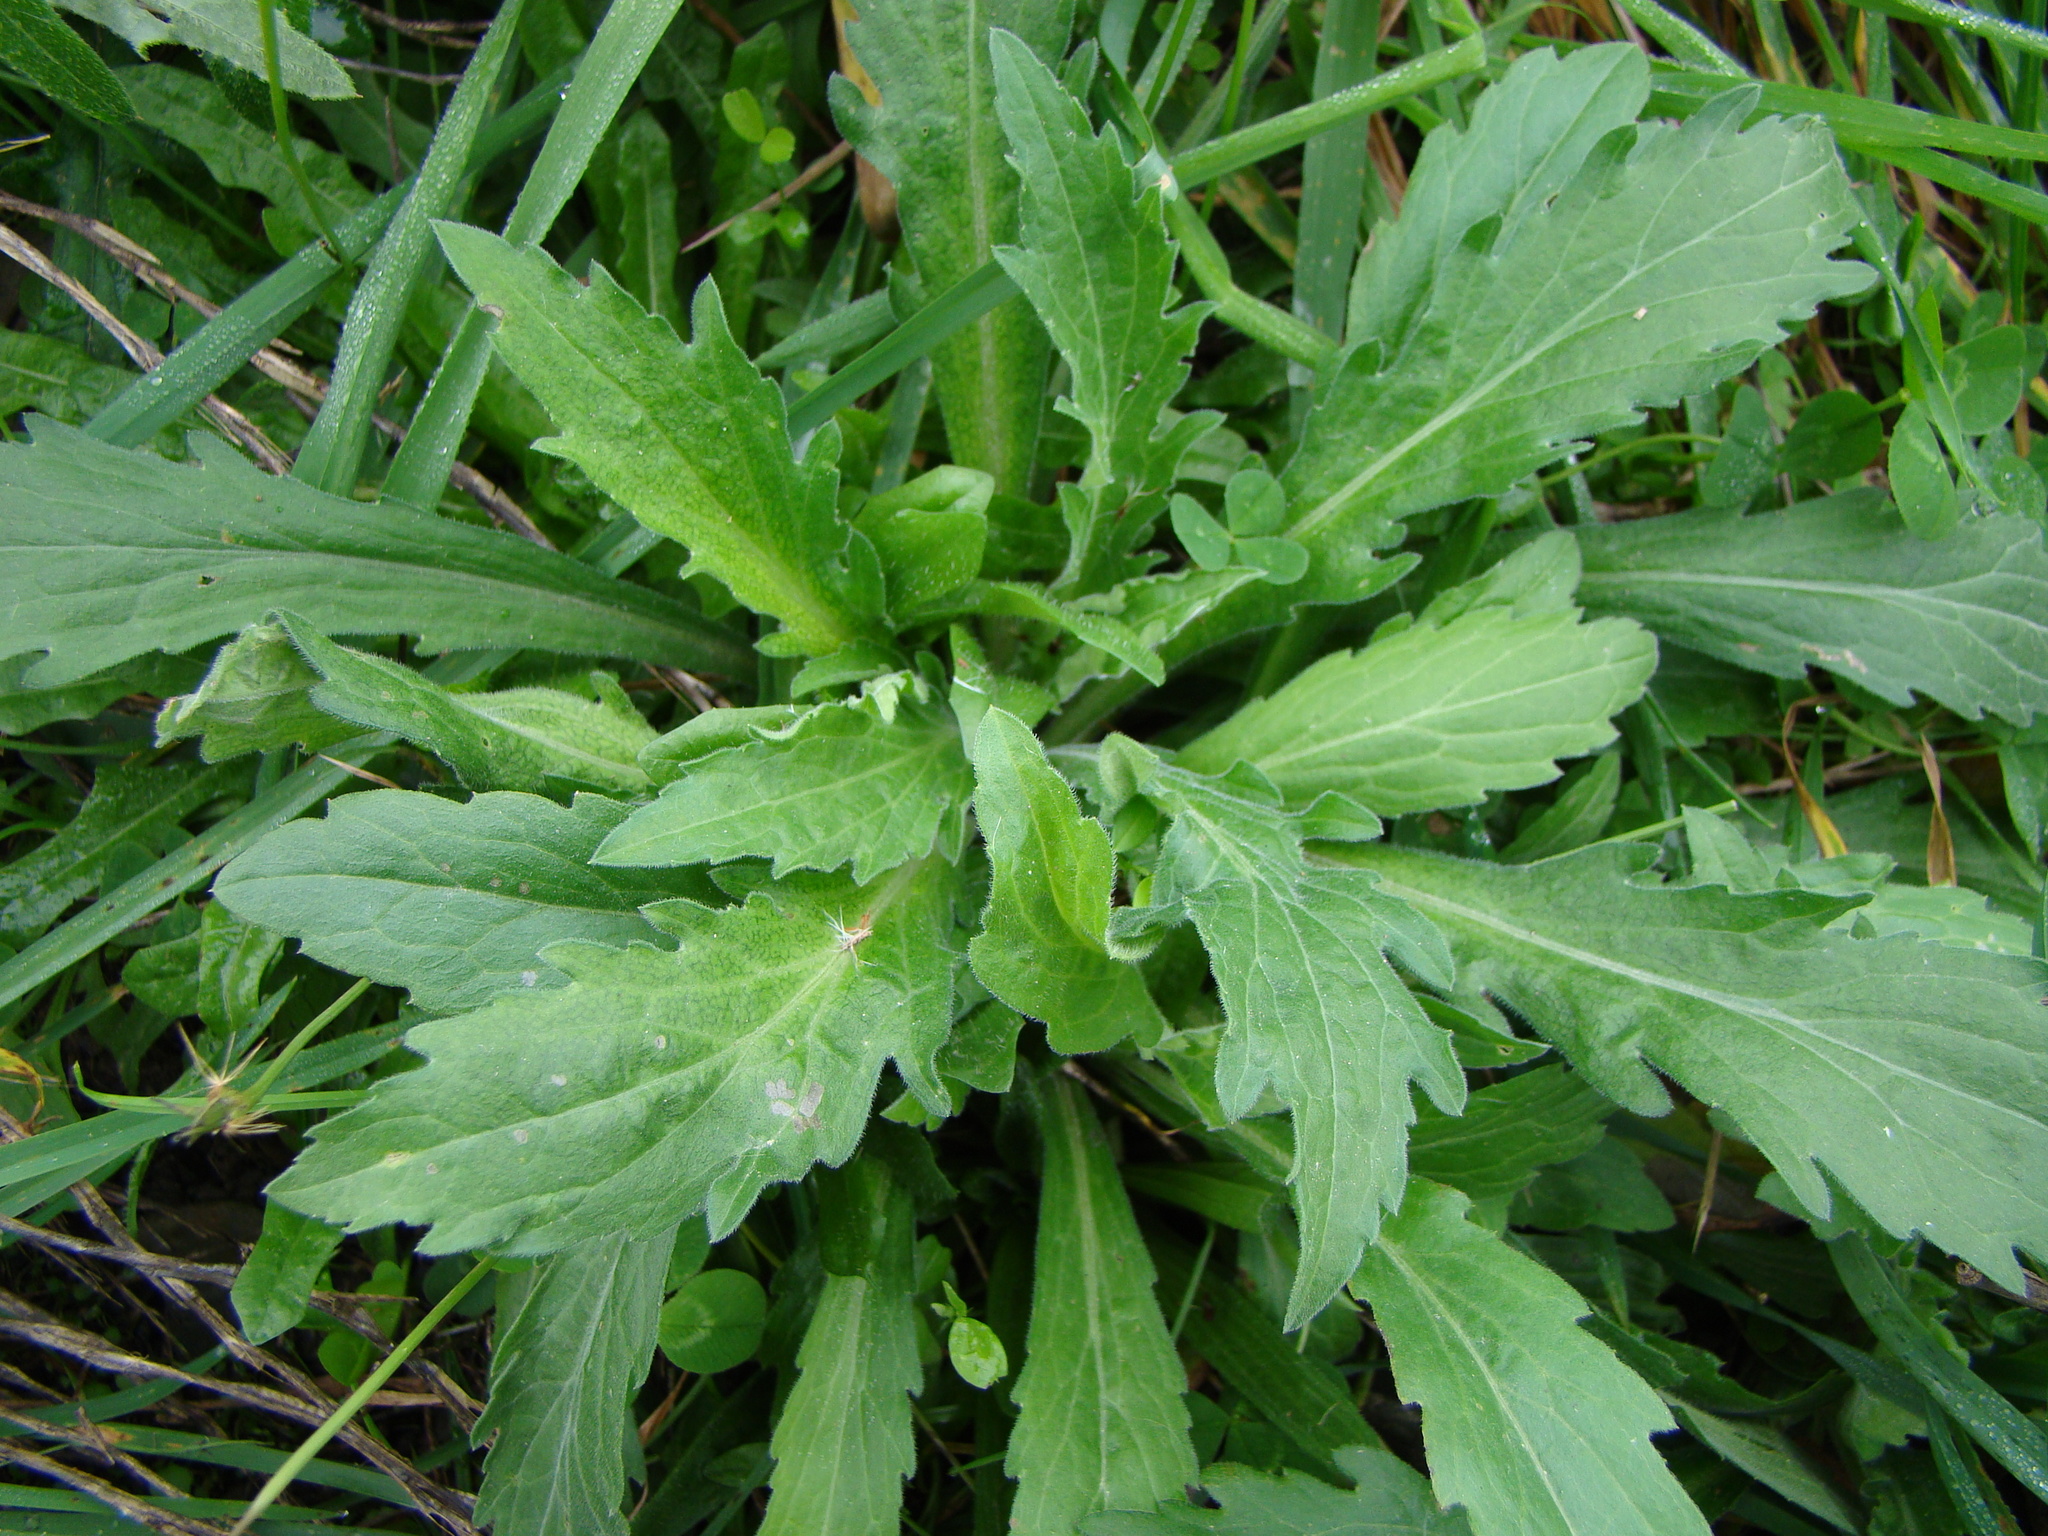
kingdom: Plantae
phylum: Tracheophyta
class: Magnoliopsida
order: Asterales
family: Asteraceae
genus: Erigeron
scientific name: Erigeron sumatrensis
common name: Daisy
